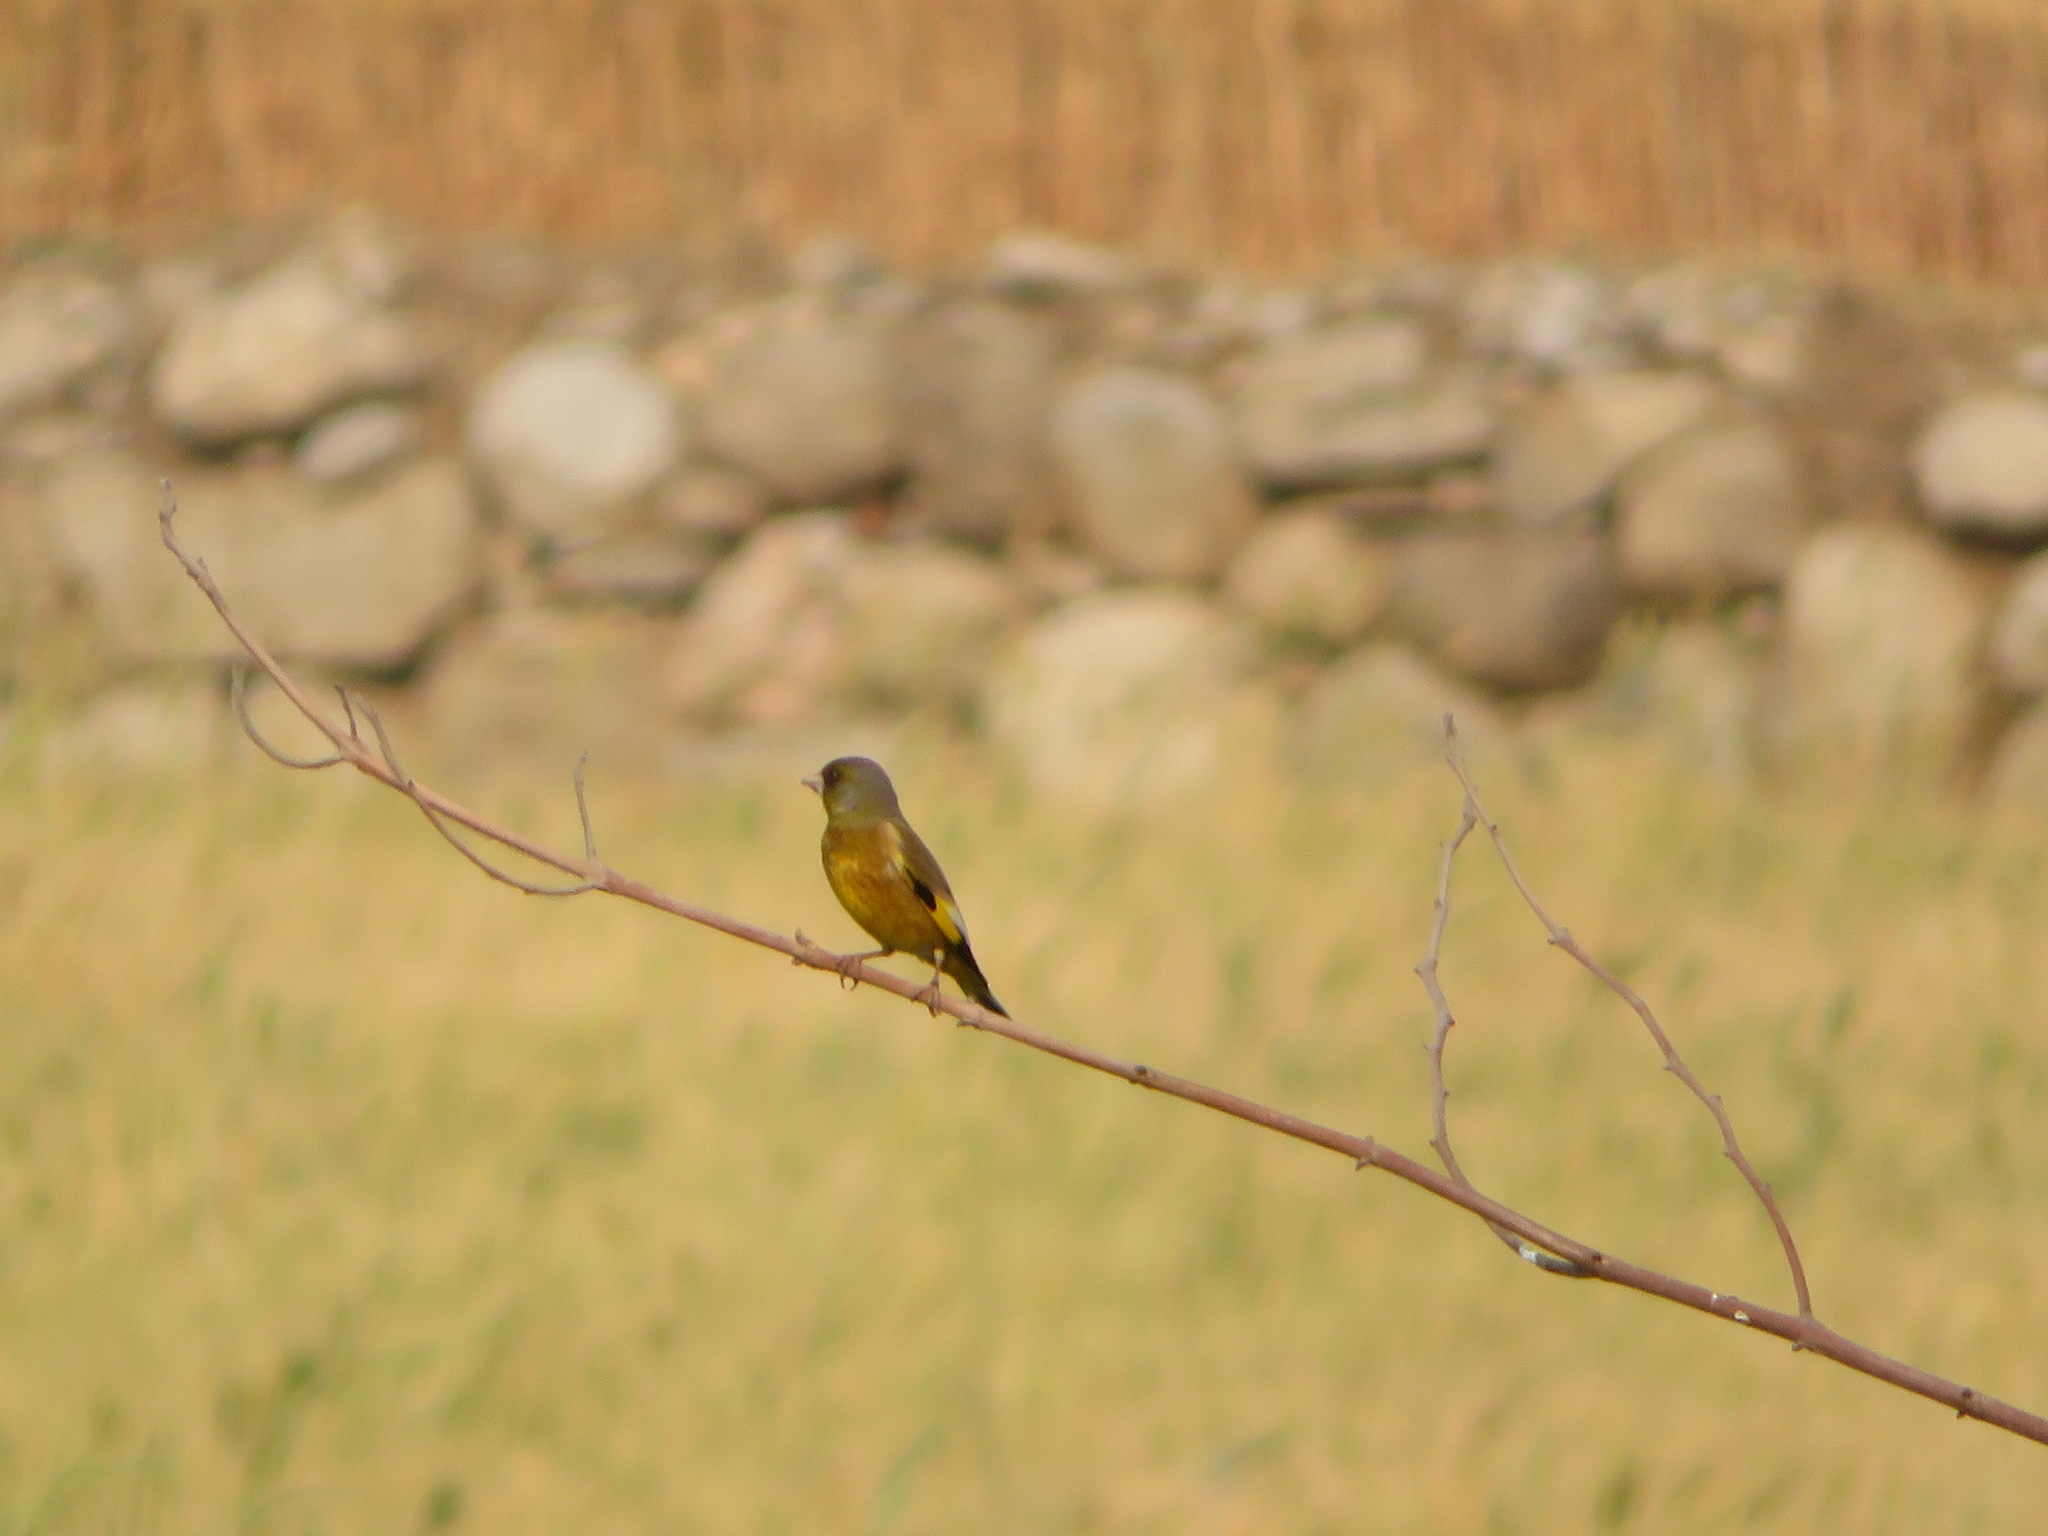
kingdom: Plantae
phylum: Tracheophyta
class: Liliopsida
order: Poales
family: Poaceae
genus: Chloris
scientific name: Chloris sinica
